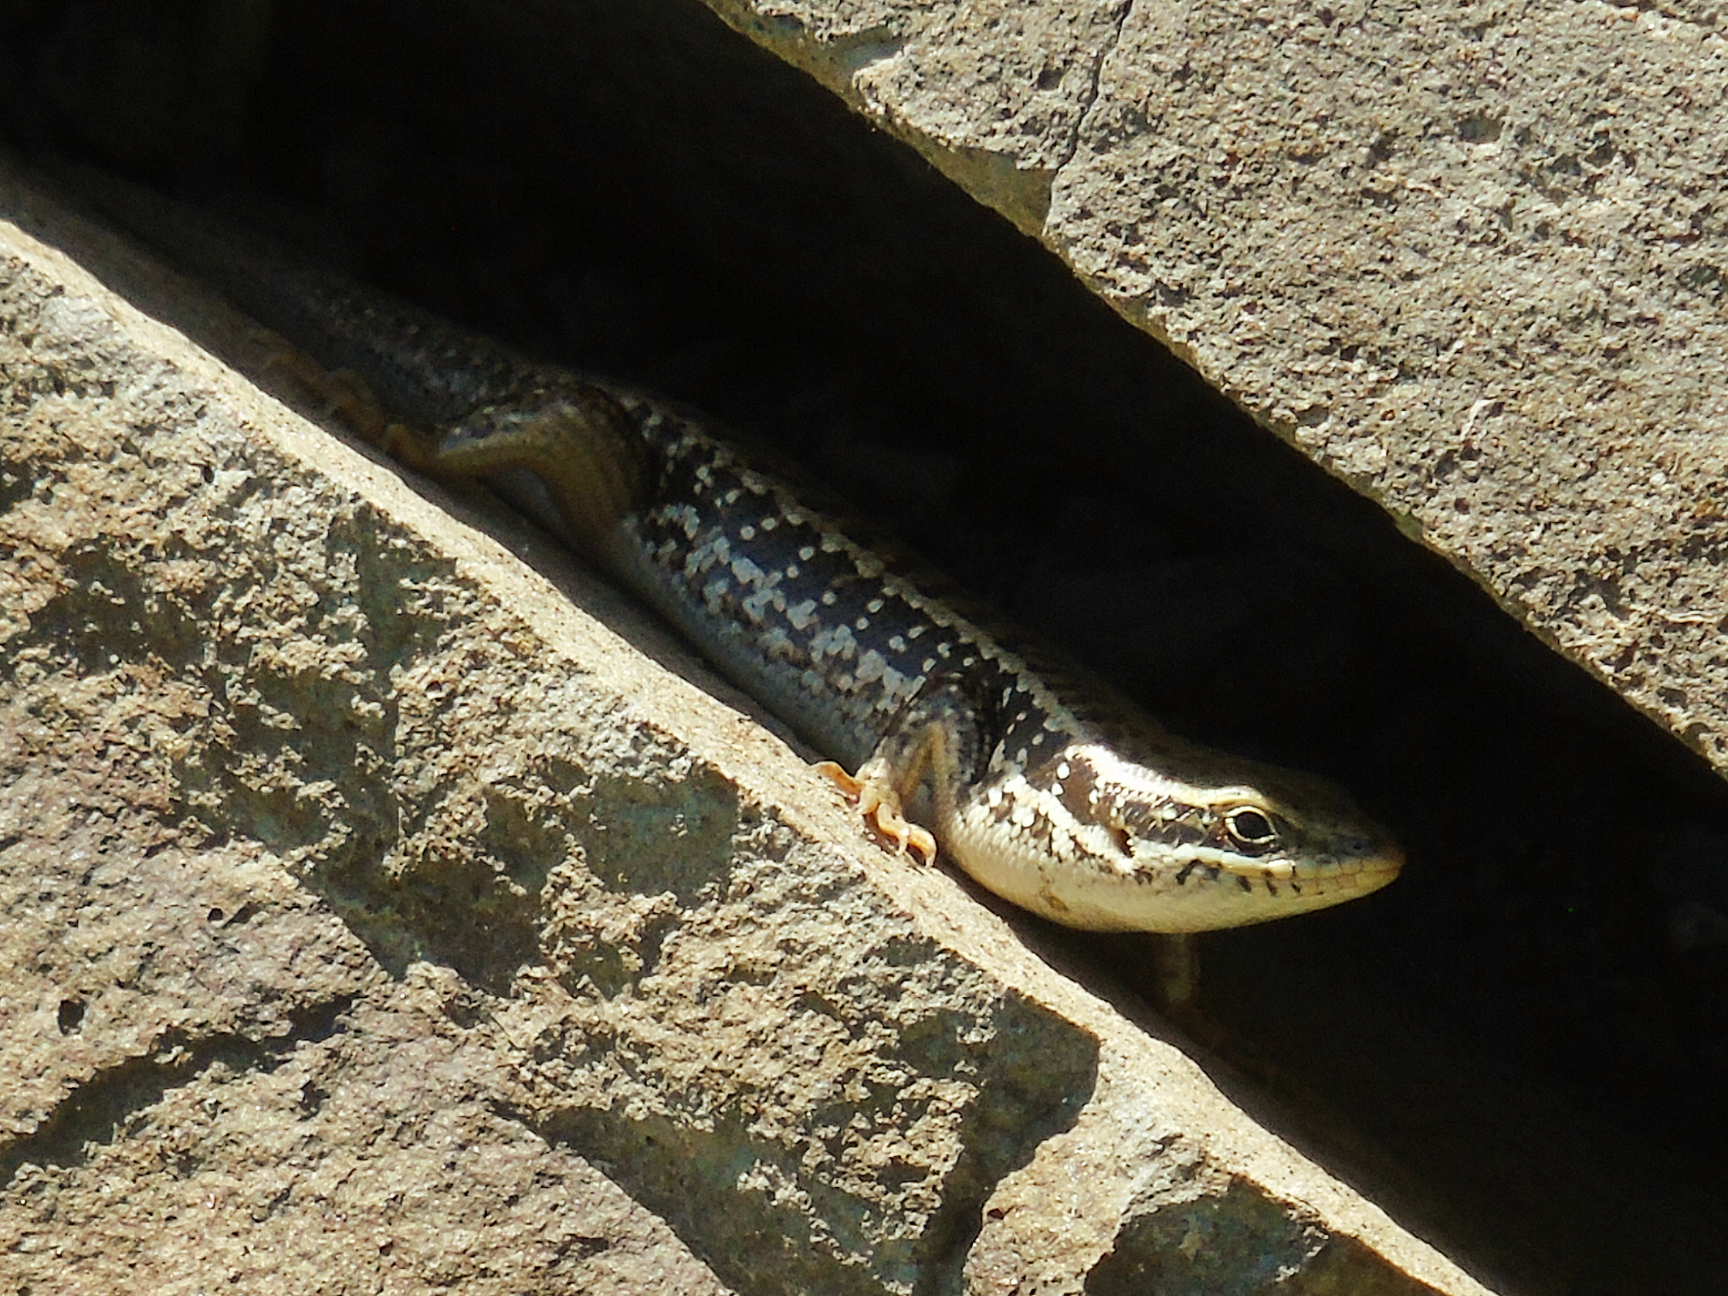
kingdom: Animalia
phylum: Chordata
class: Squamata
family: Scincidae
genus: Heremites
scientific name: Heremites auratus
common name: Golden grass mabuya
